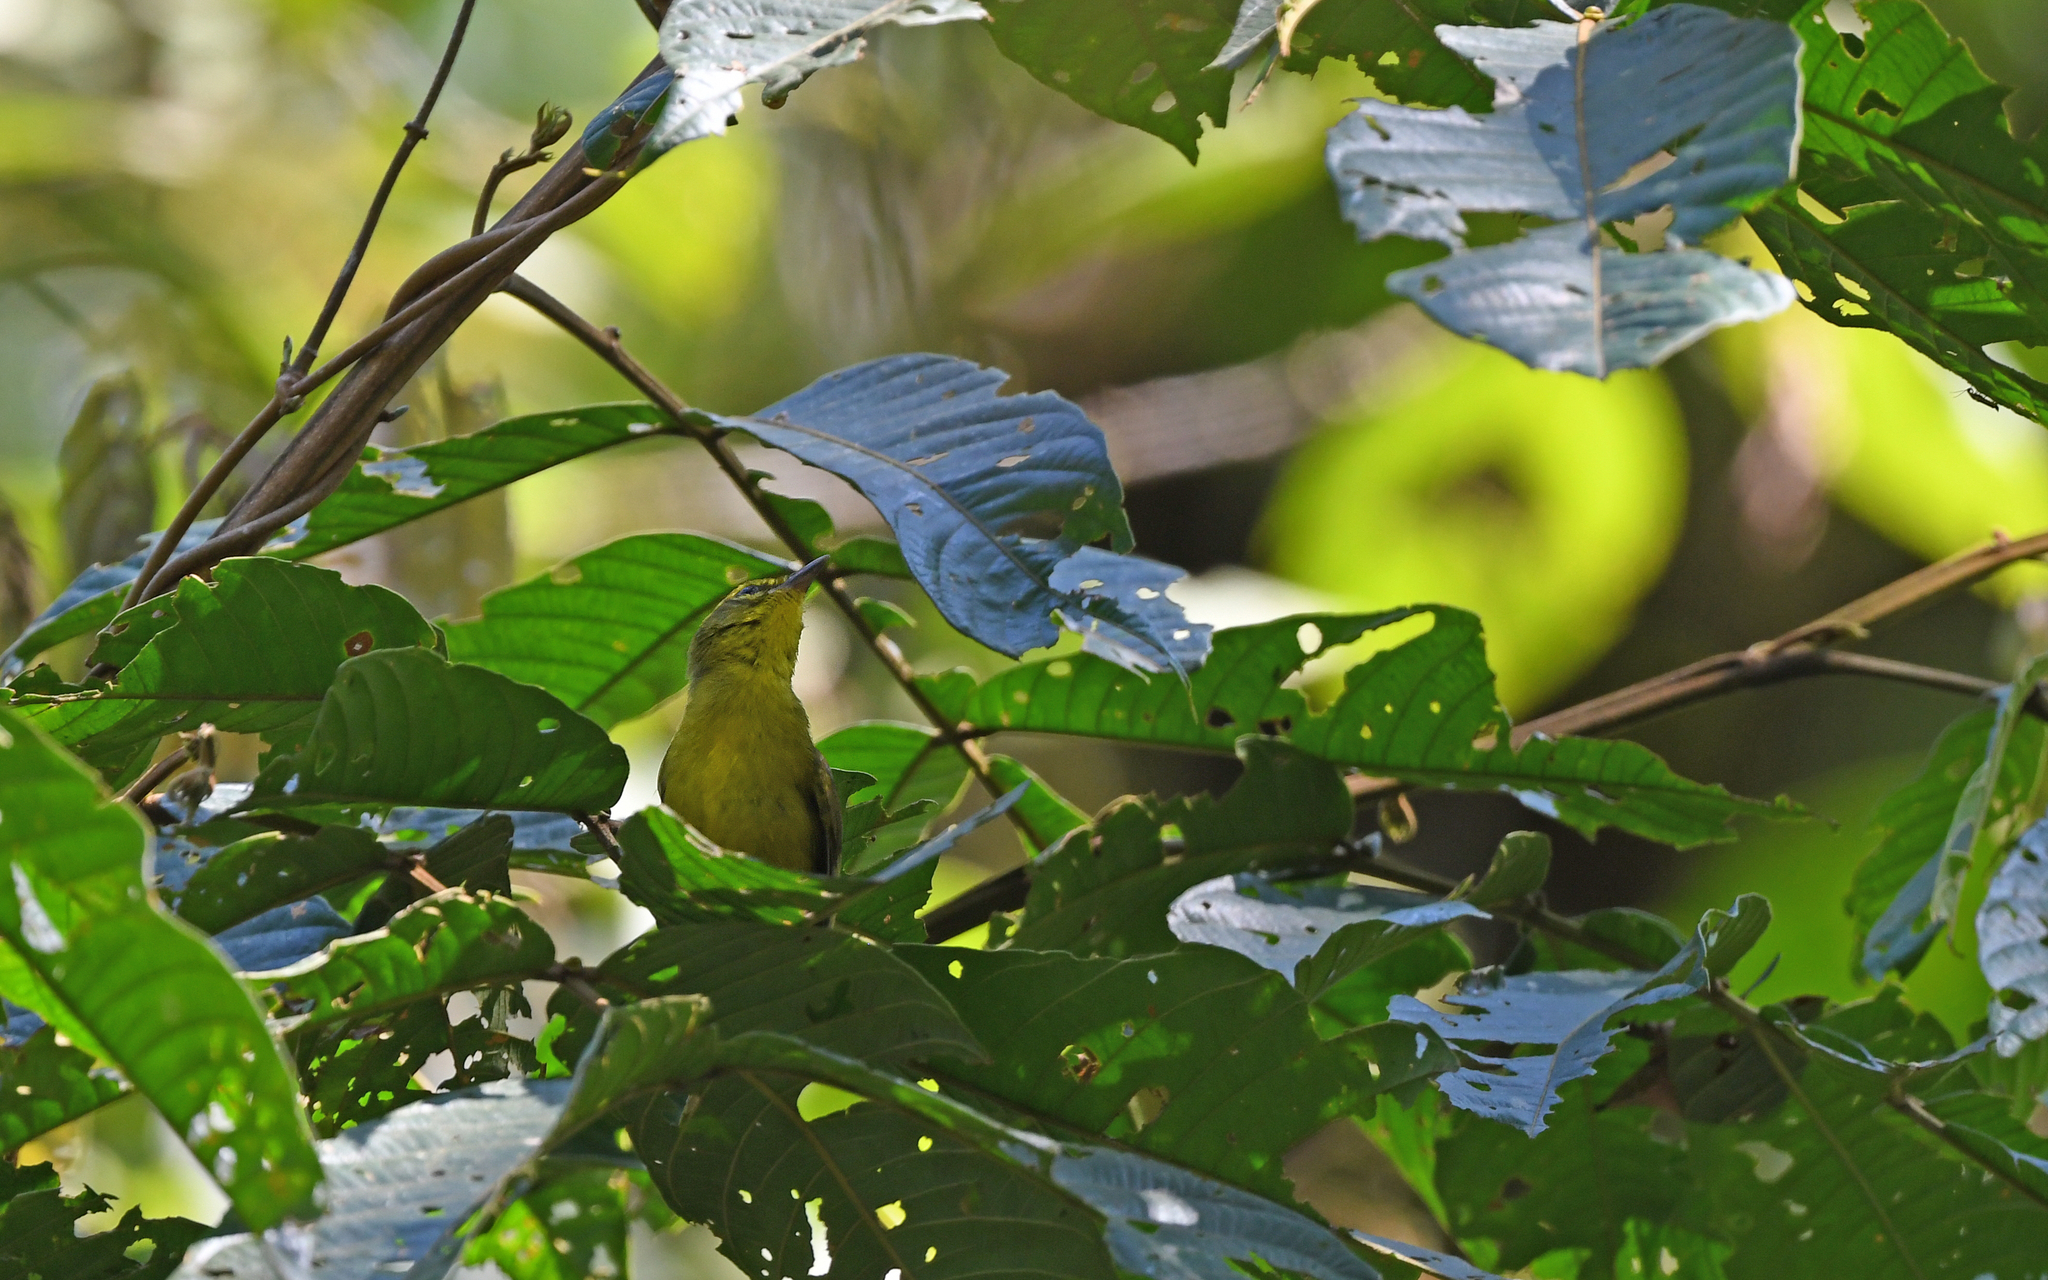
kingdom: Animalia
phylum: Chordata
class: Aves
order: Passeriformes
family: Parulidae
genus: Myiothlypis
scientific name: Myiothlypis chrysogaster
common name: Cuzco warbler
